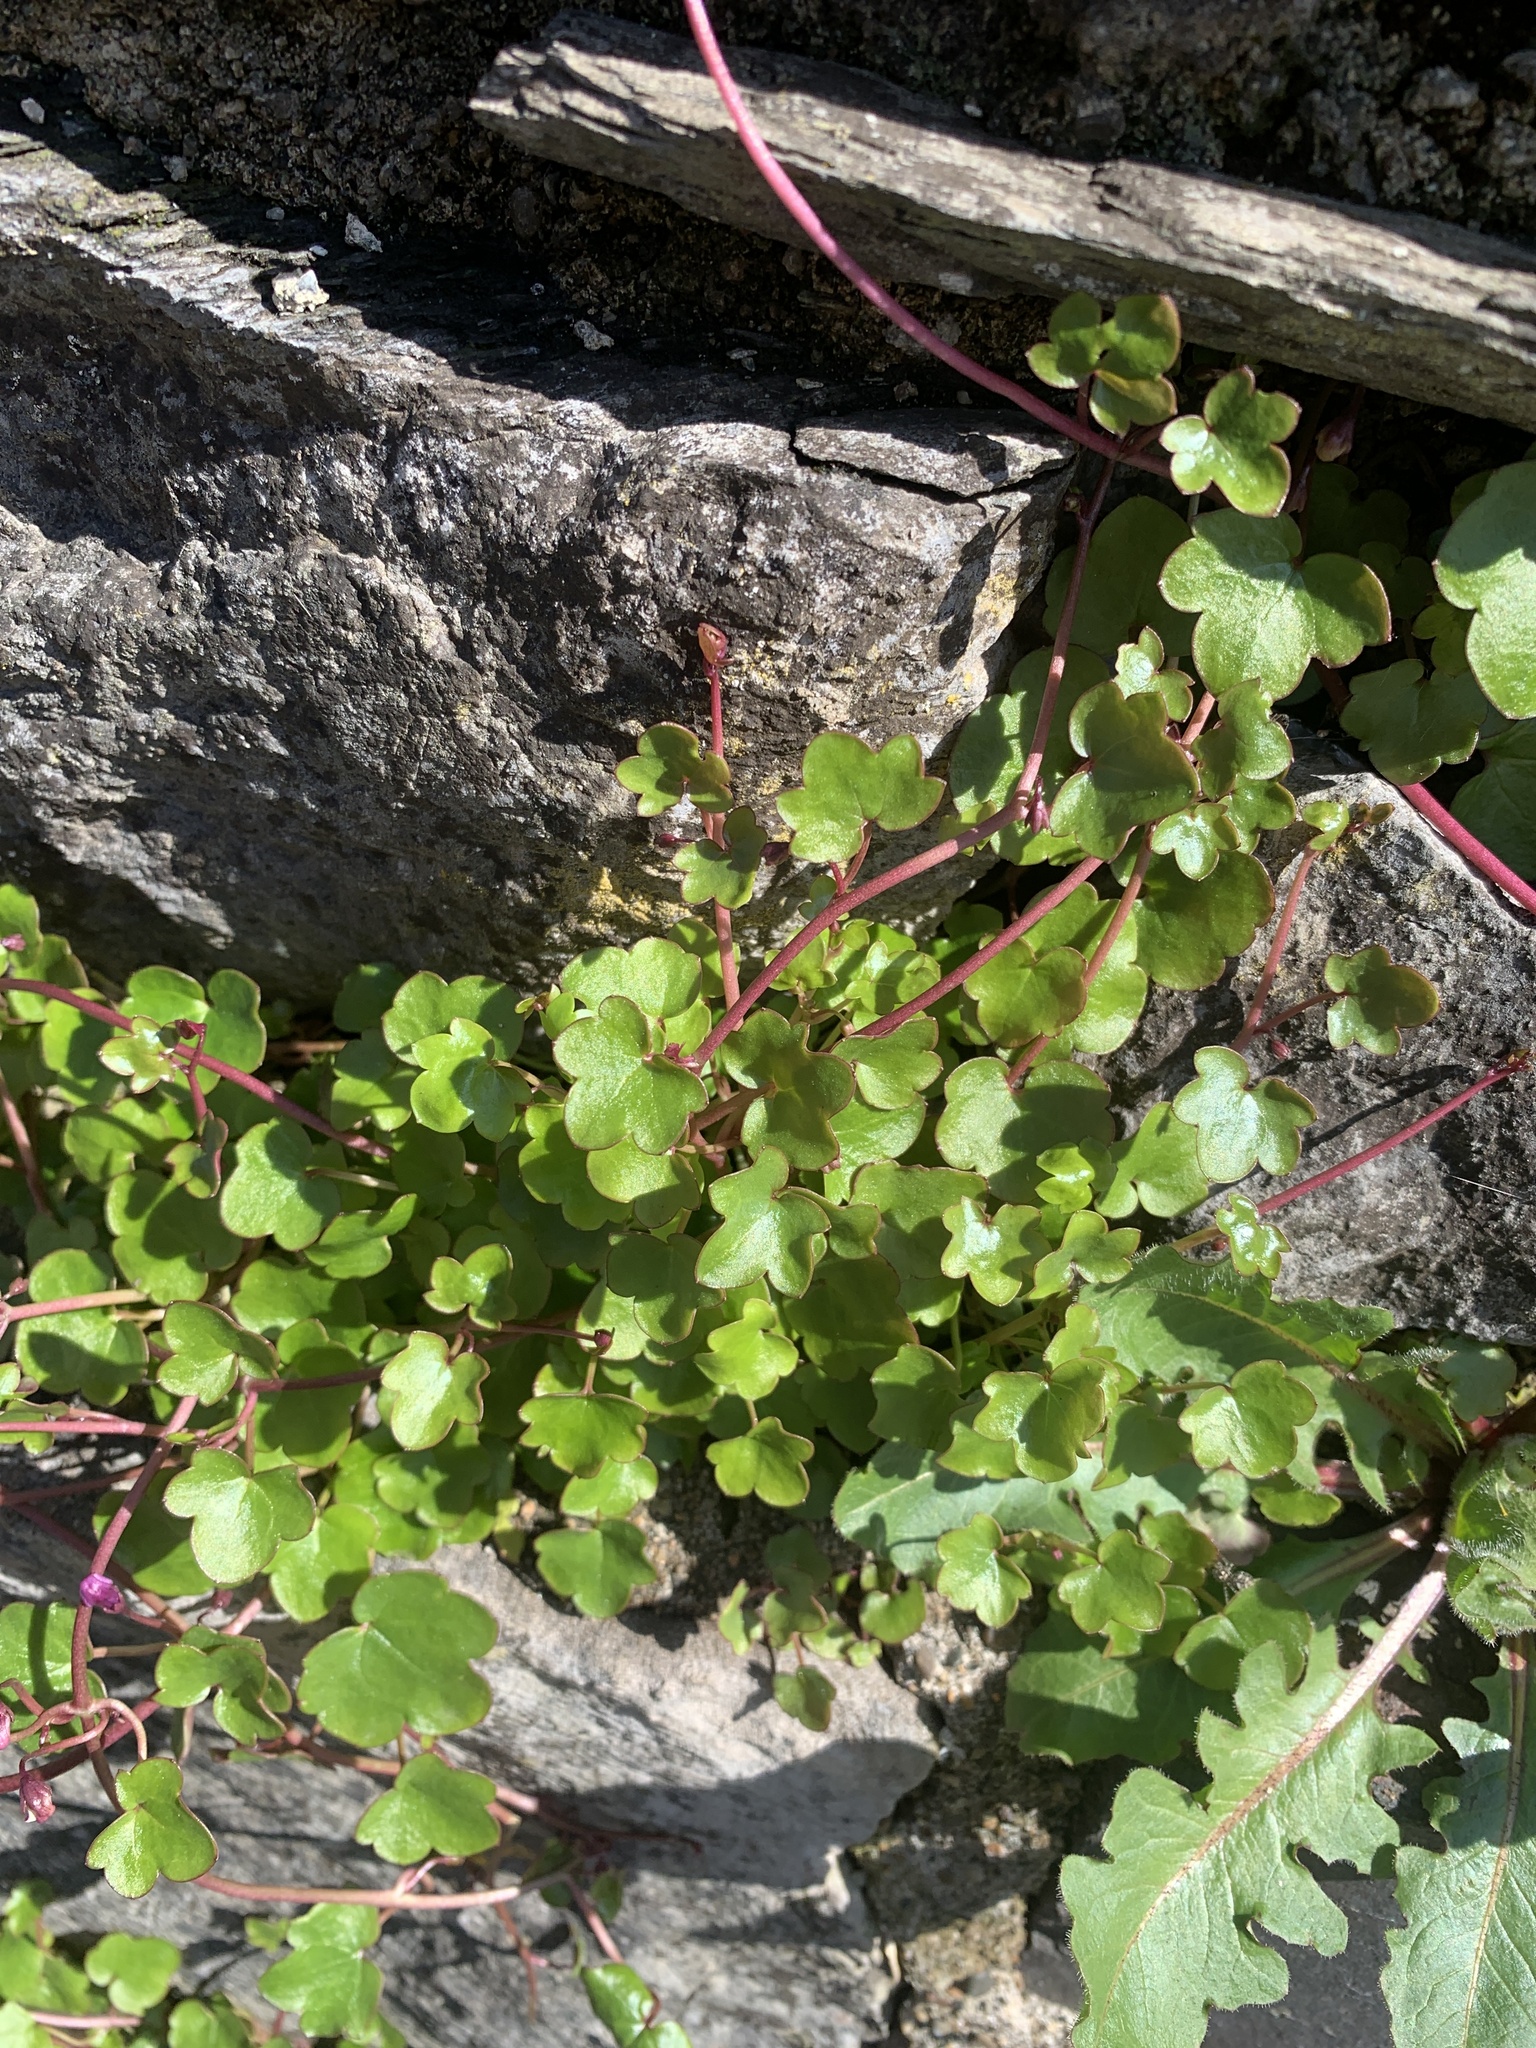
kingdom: Plantae
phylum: Tracheophyta
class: Magnoliopsida
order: Lamiales
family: Plantaginaceae
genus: Cymbalaria
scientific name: Cymbalaria muralis
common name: Ivy-leaved toadflax
